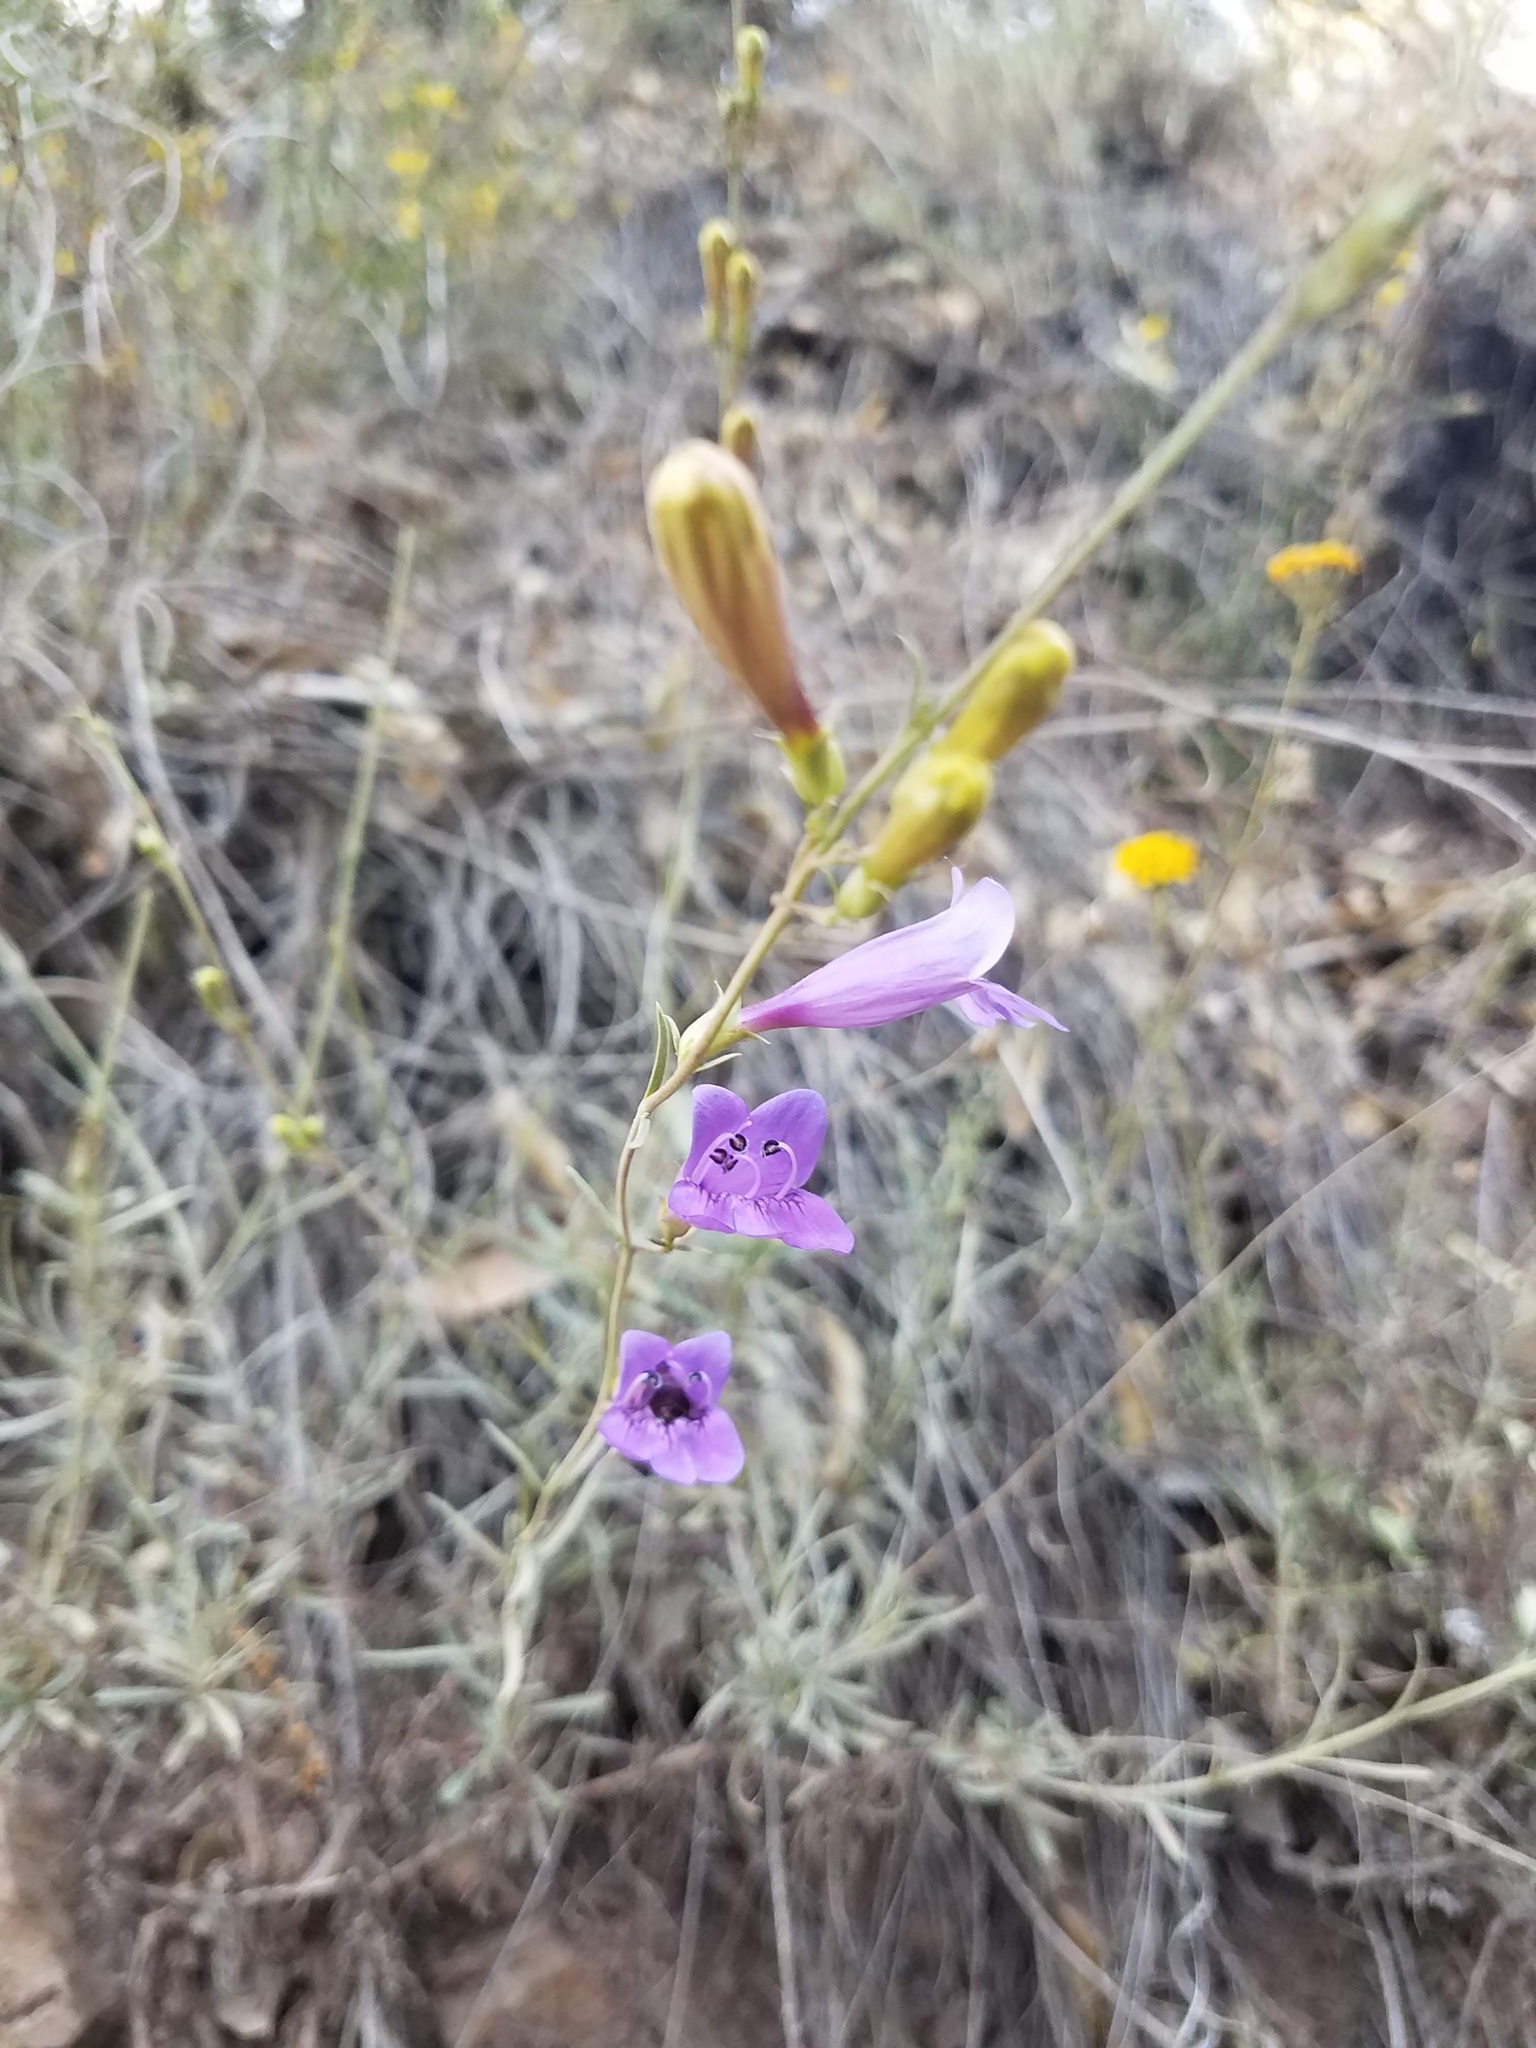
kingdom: Plantae
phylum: Tracheophyta
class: Magnoliopsida
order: Lamiales
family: Plantaginaceae
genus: Penstemon
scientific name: Penstemon heterophyllus
